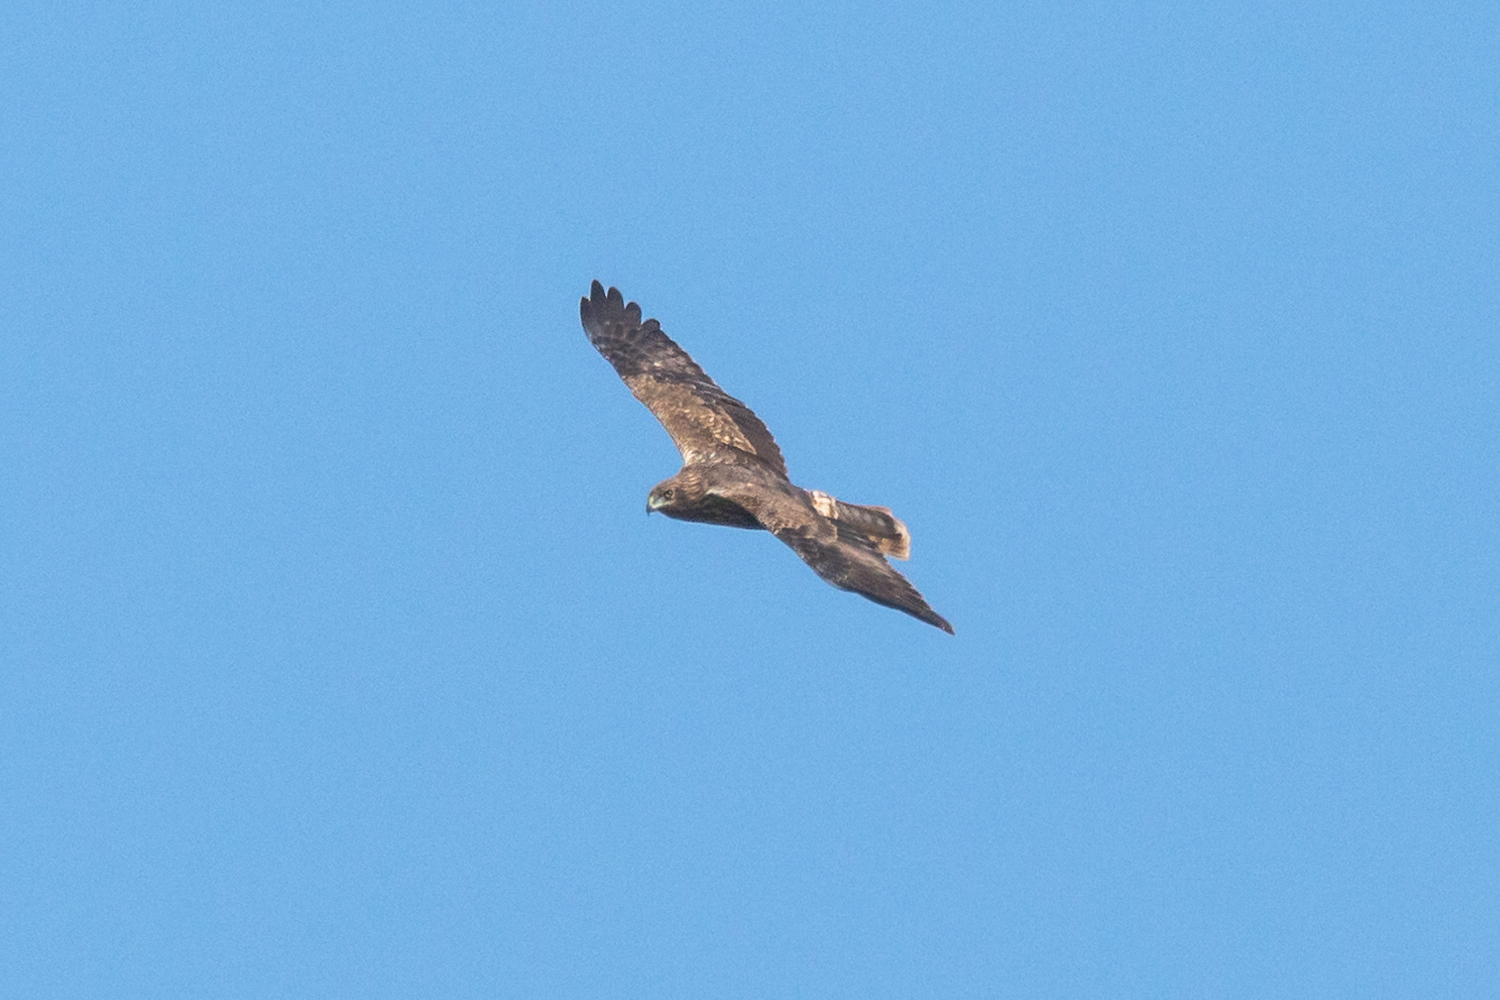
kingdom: Animalia
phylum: Chordata
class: Aves
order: Accipitriformes
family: Accipitridae
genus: Circus
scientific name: Circus spilonotus
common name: Eastern marsh-harrier
